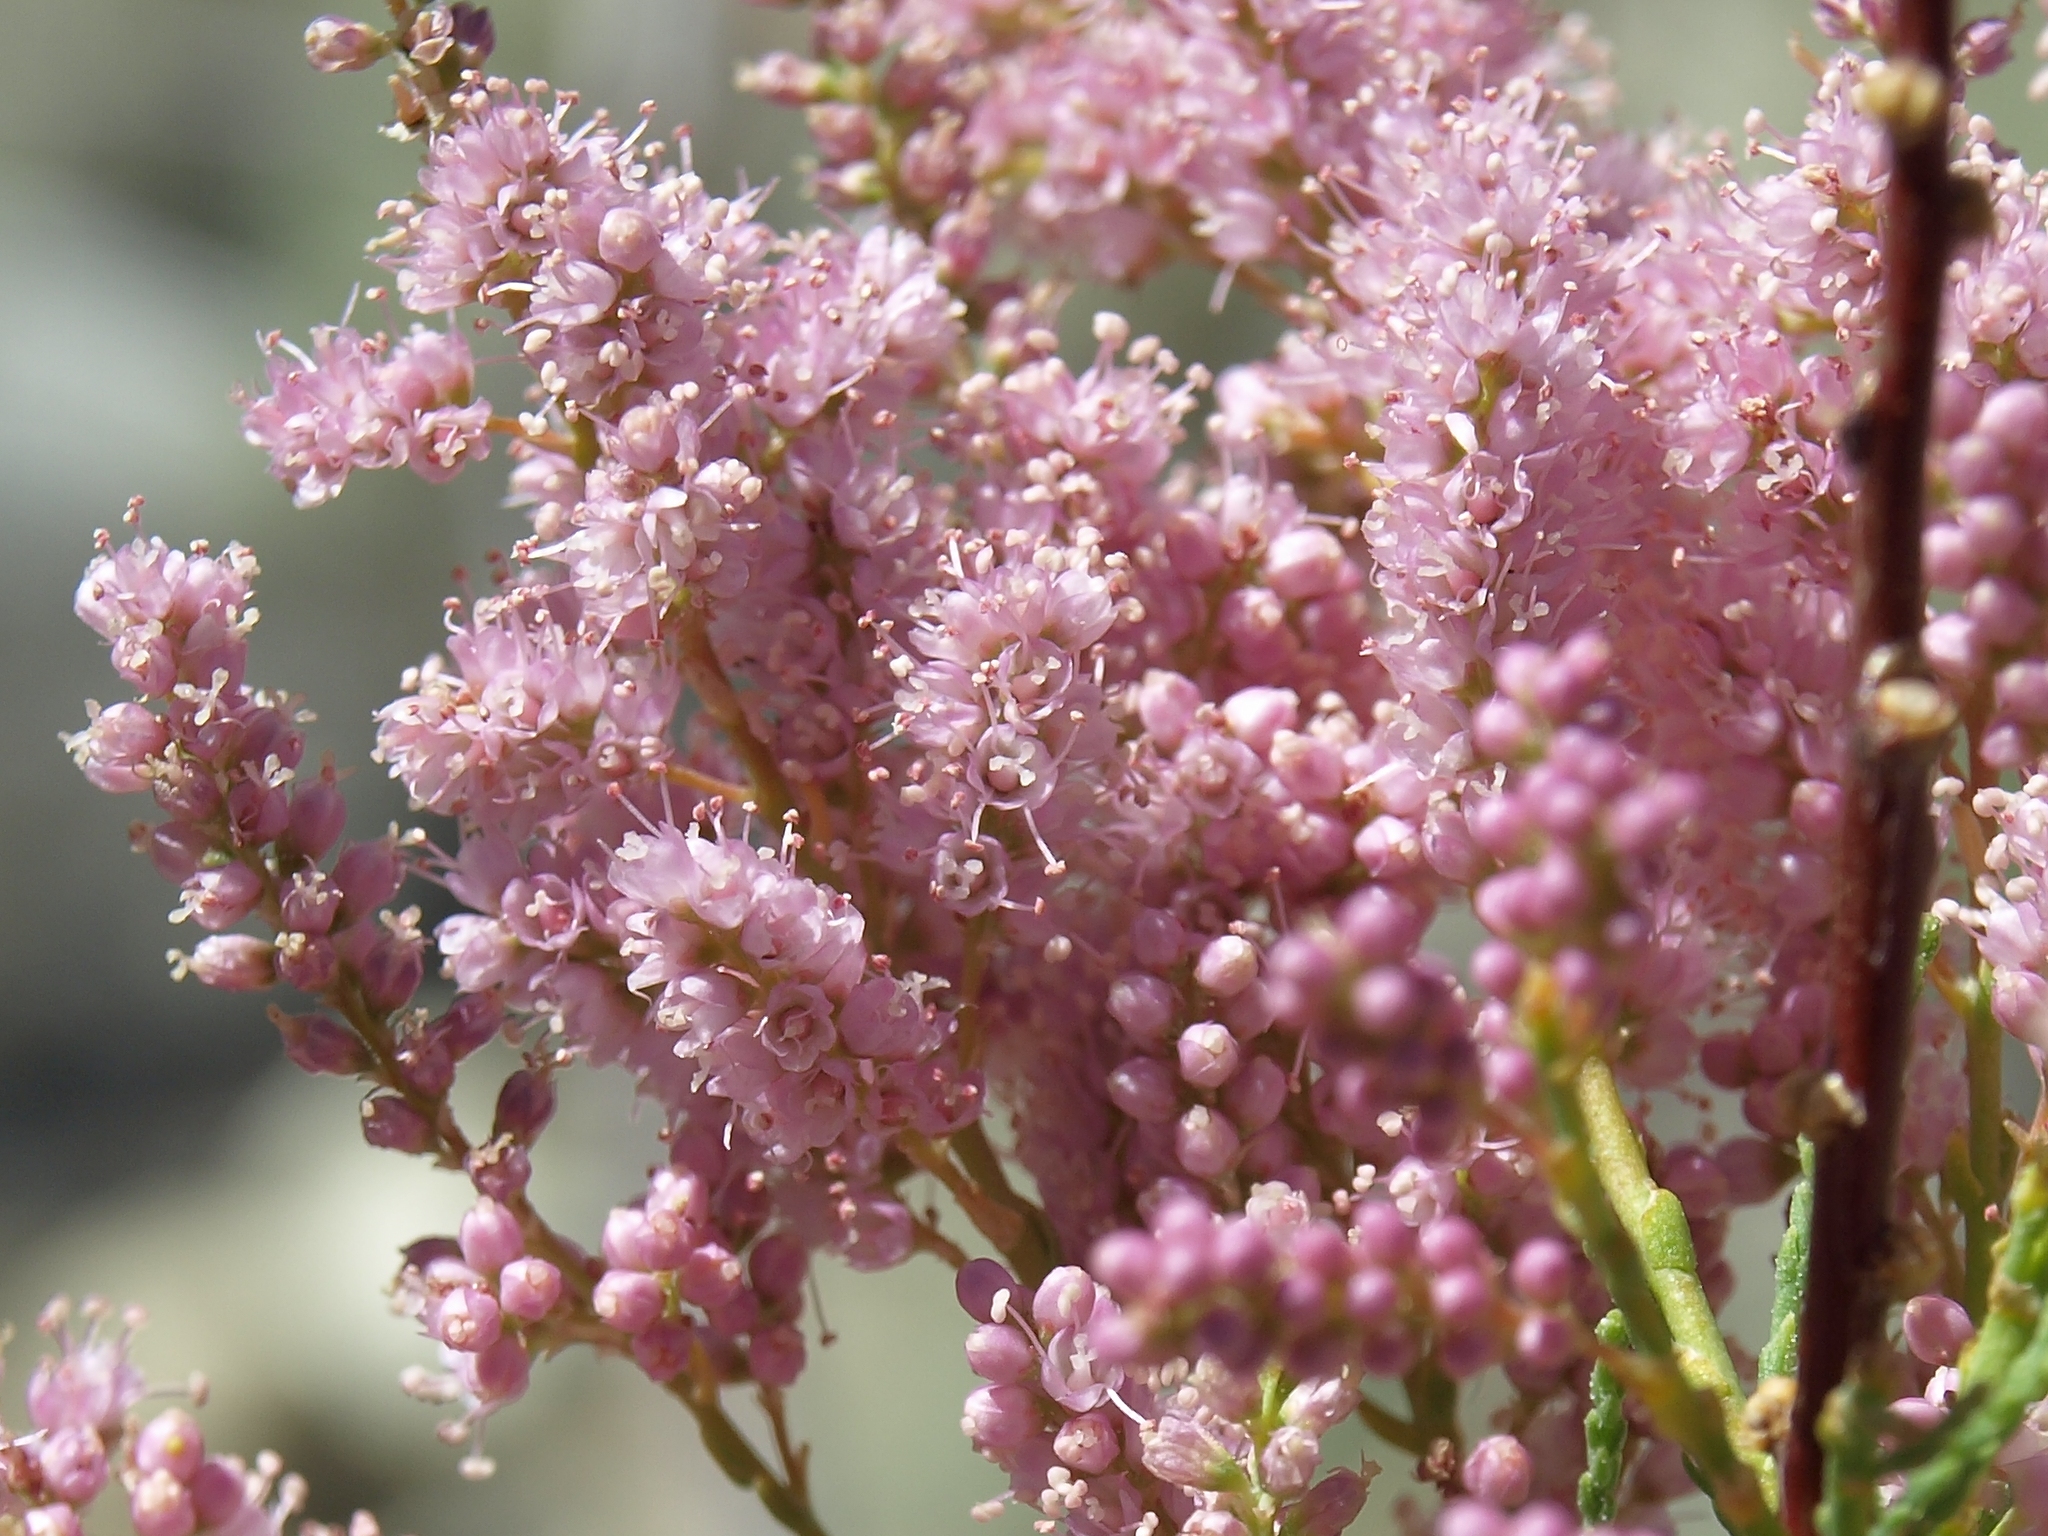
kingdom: Plantae
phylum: Tracheophyta
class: Magnoliopsida
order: Caryophyllales
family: Tamaricaceae
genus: Tamarix
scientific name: Tamarix ramosissima
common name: Pink tamarisk
